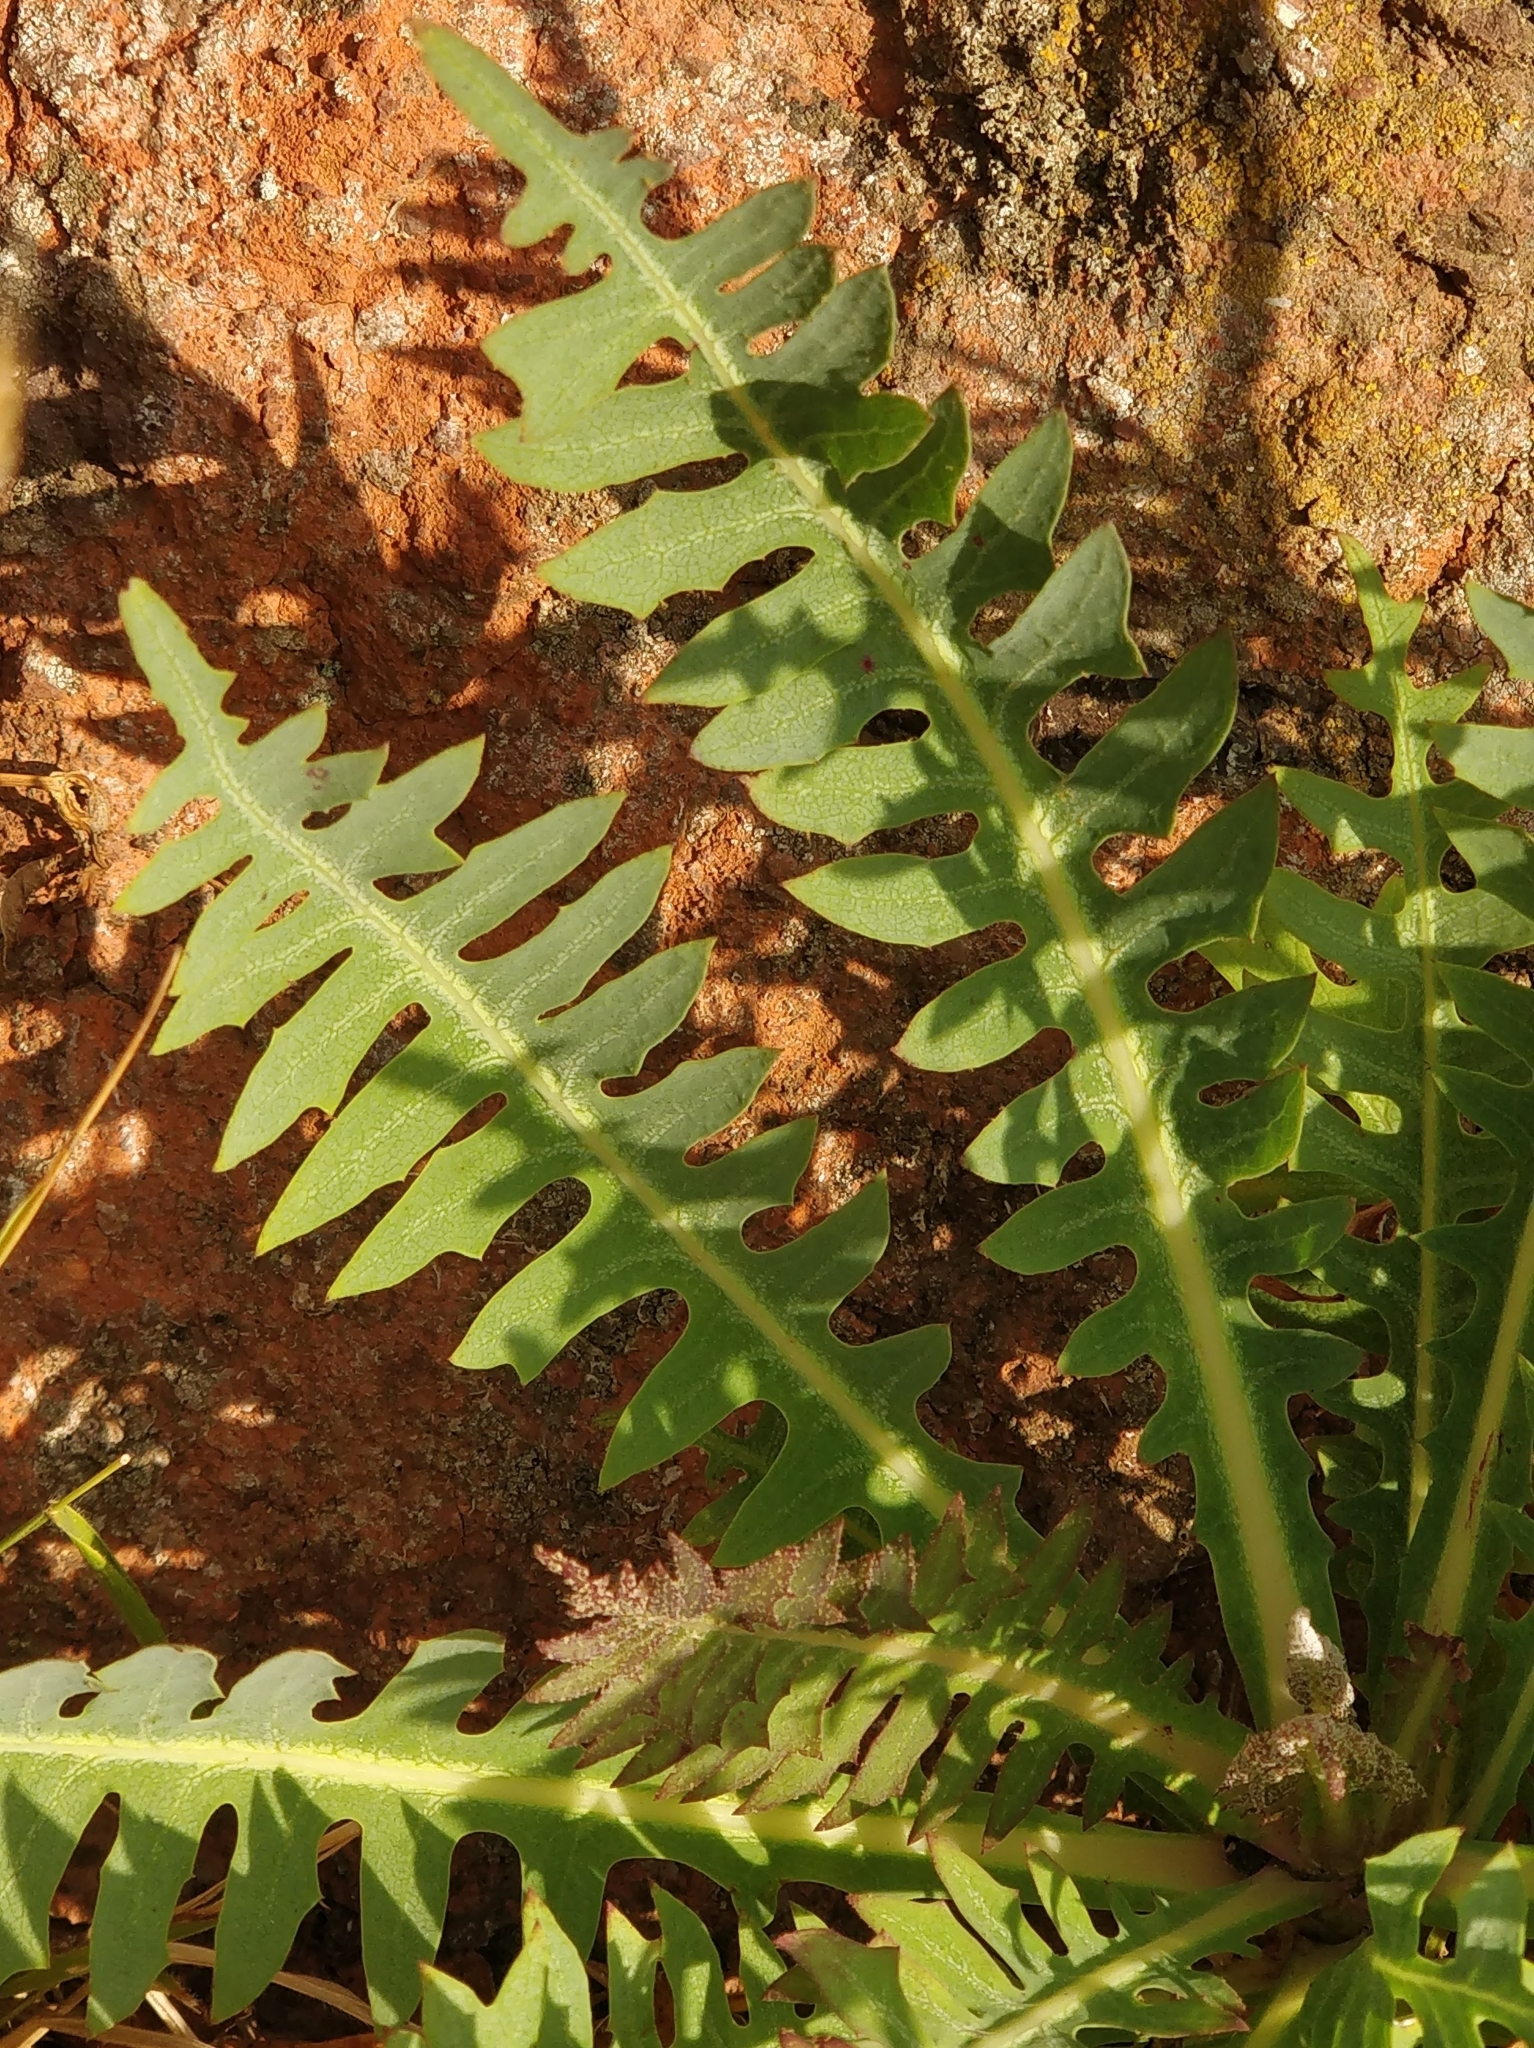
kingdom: Plantae
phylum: Tracheophyta
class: Magnoliopsida
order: Asterales
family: Asteraceae
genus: Sonchus
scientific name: Sonchus ustulatus
